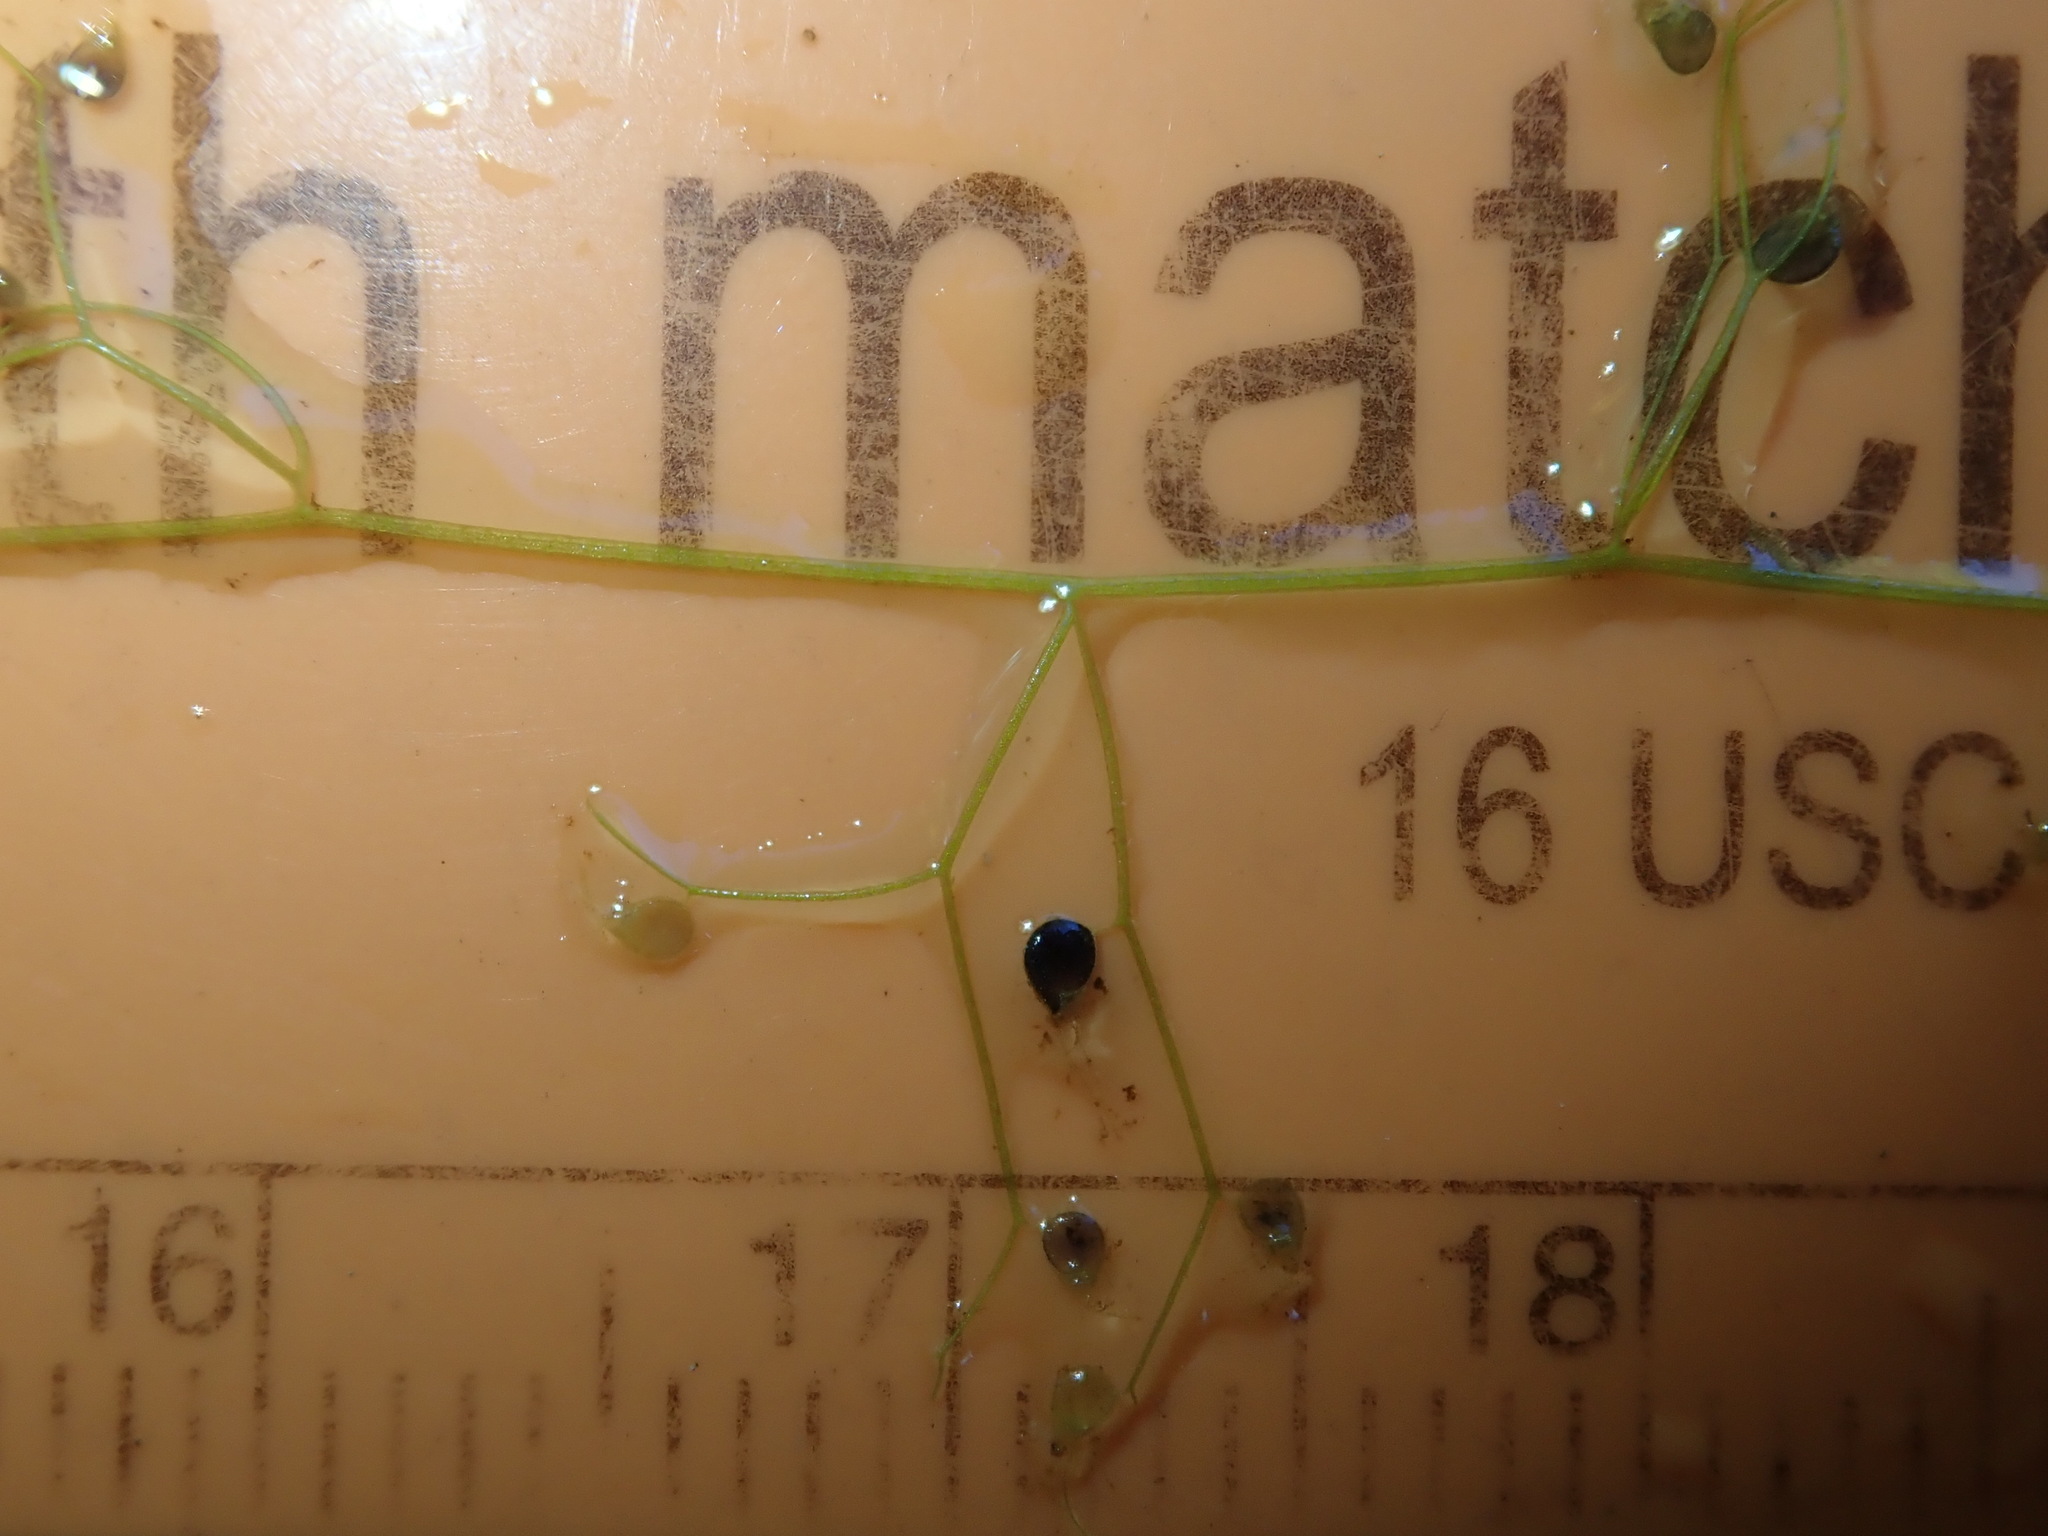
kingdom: Plantae
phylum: Tracheophyta
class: Magnoliopsida
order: Lamiales
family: Lentibulariaceae
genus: Utricularia
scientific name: Utricularia gibba
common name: Humped bladderwort
